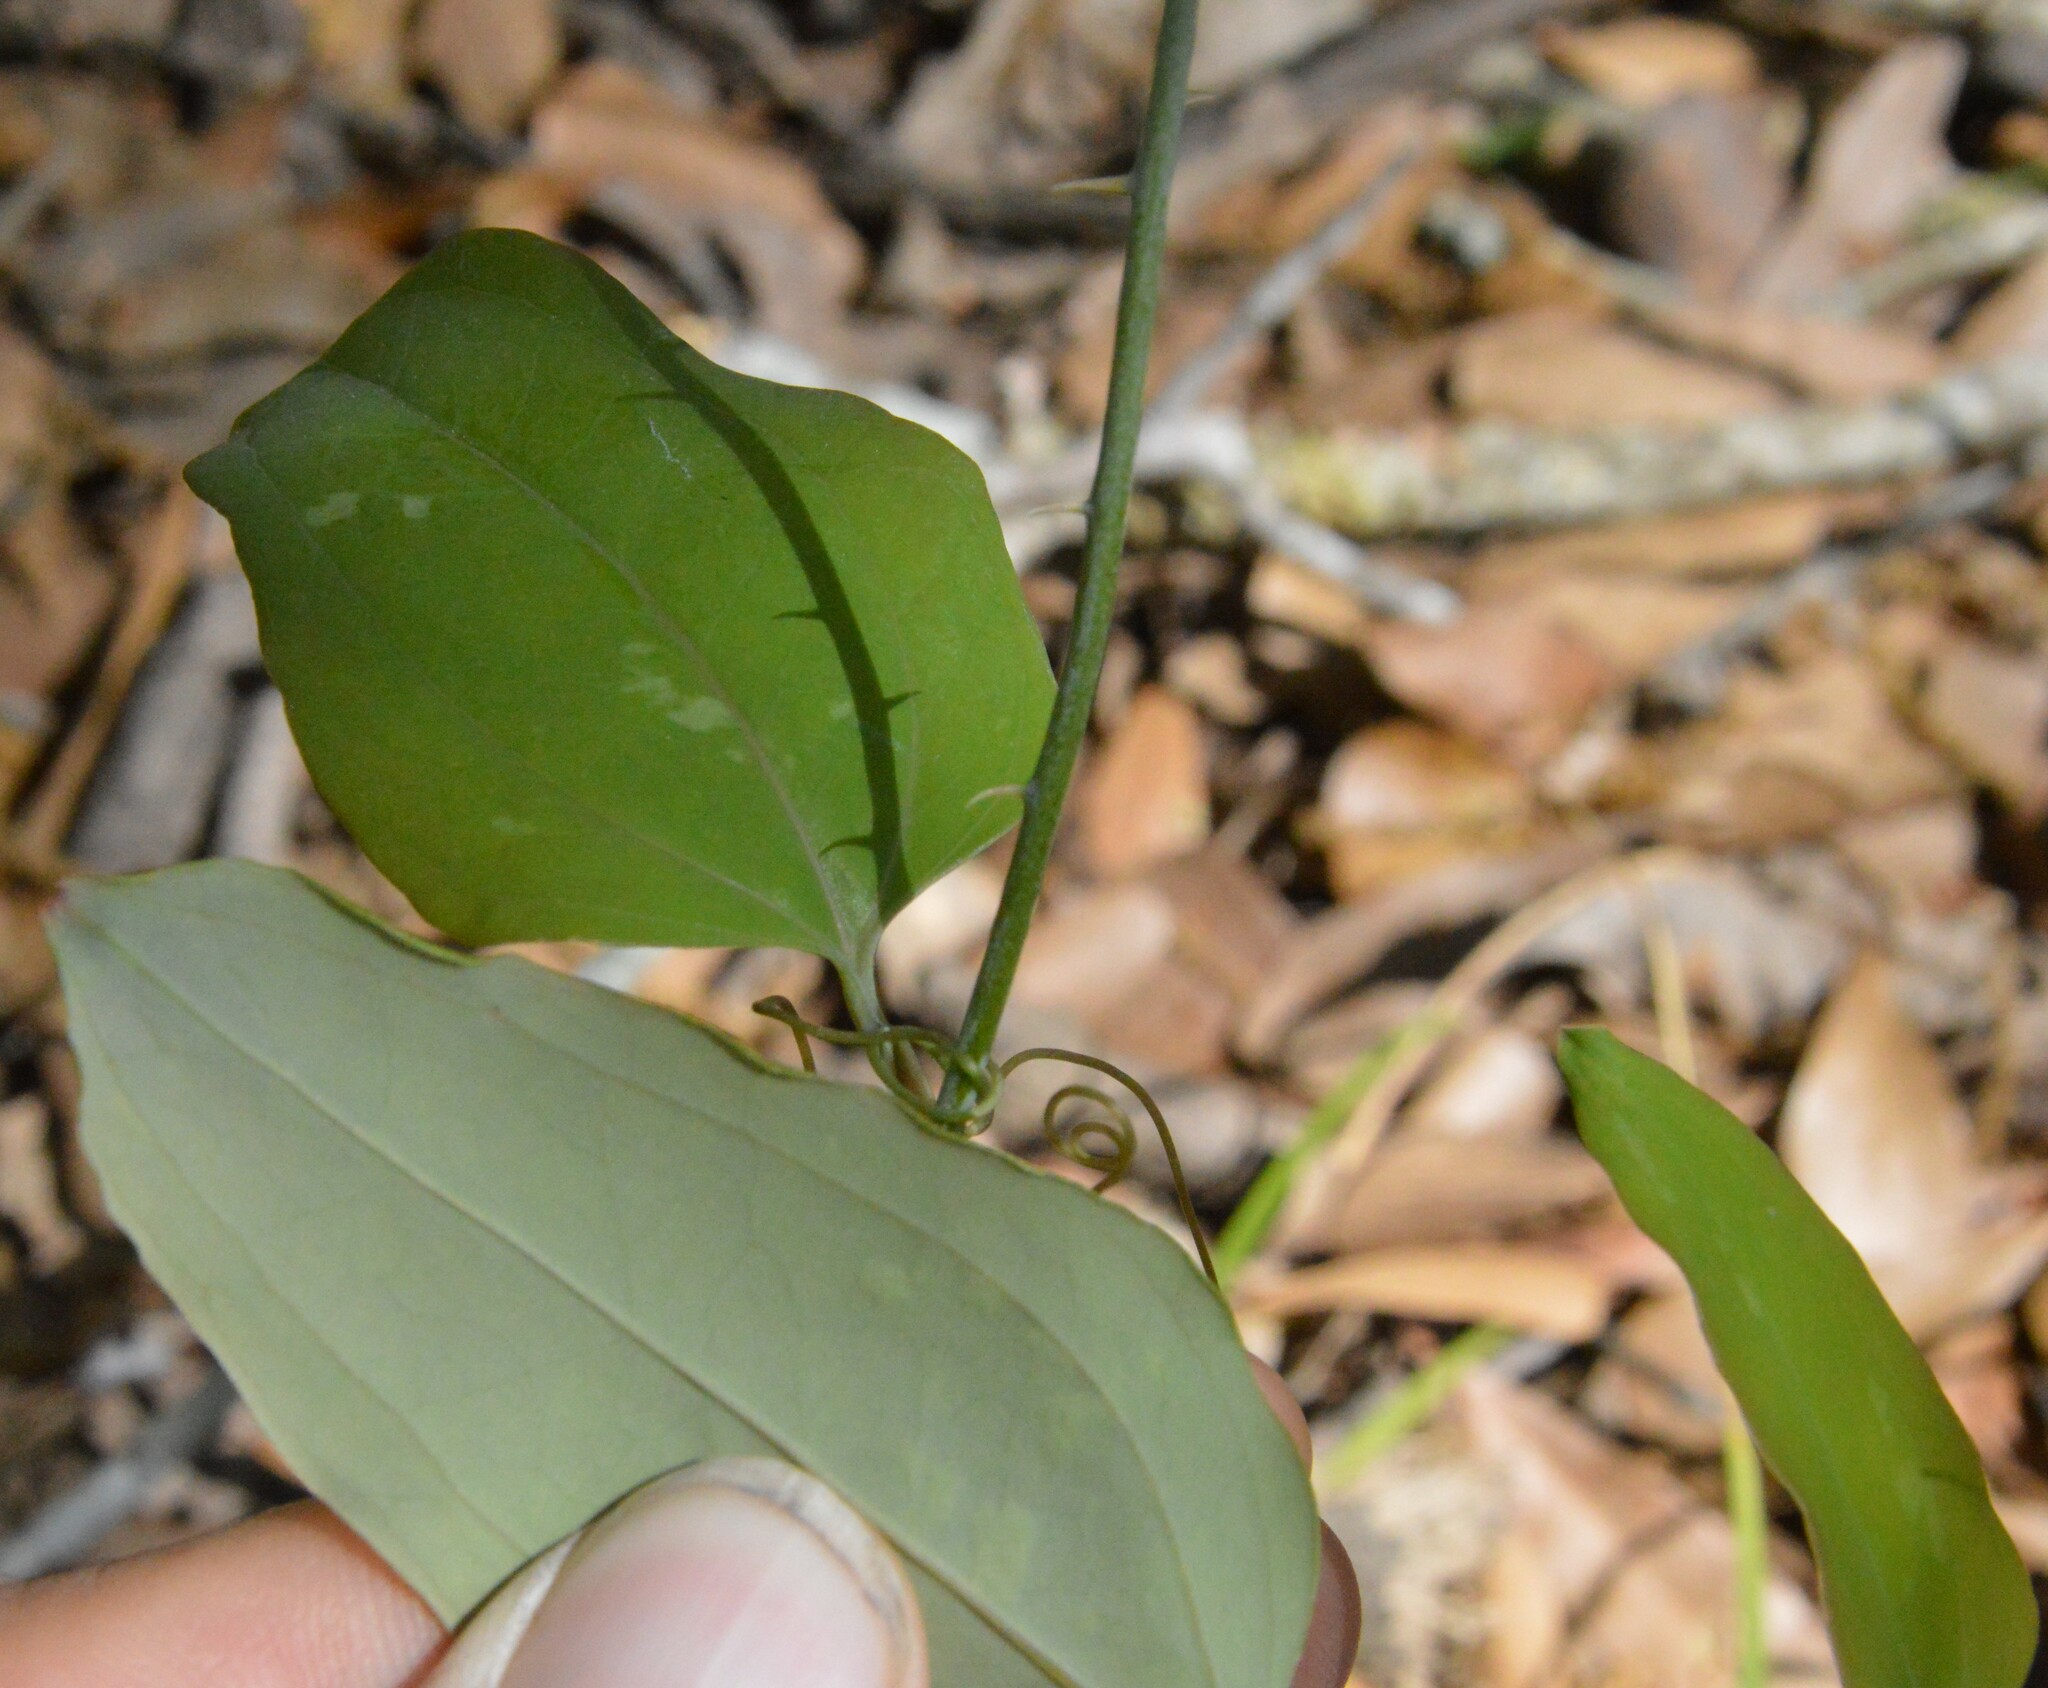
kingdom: Plantae
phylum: Tracheophyta
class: Liliopsida
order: Liliales
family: Smilacaceae
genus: Smilax
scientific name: Smilax glauca
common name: Cat greenbrier
